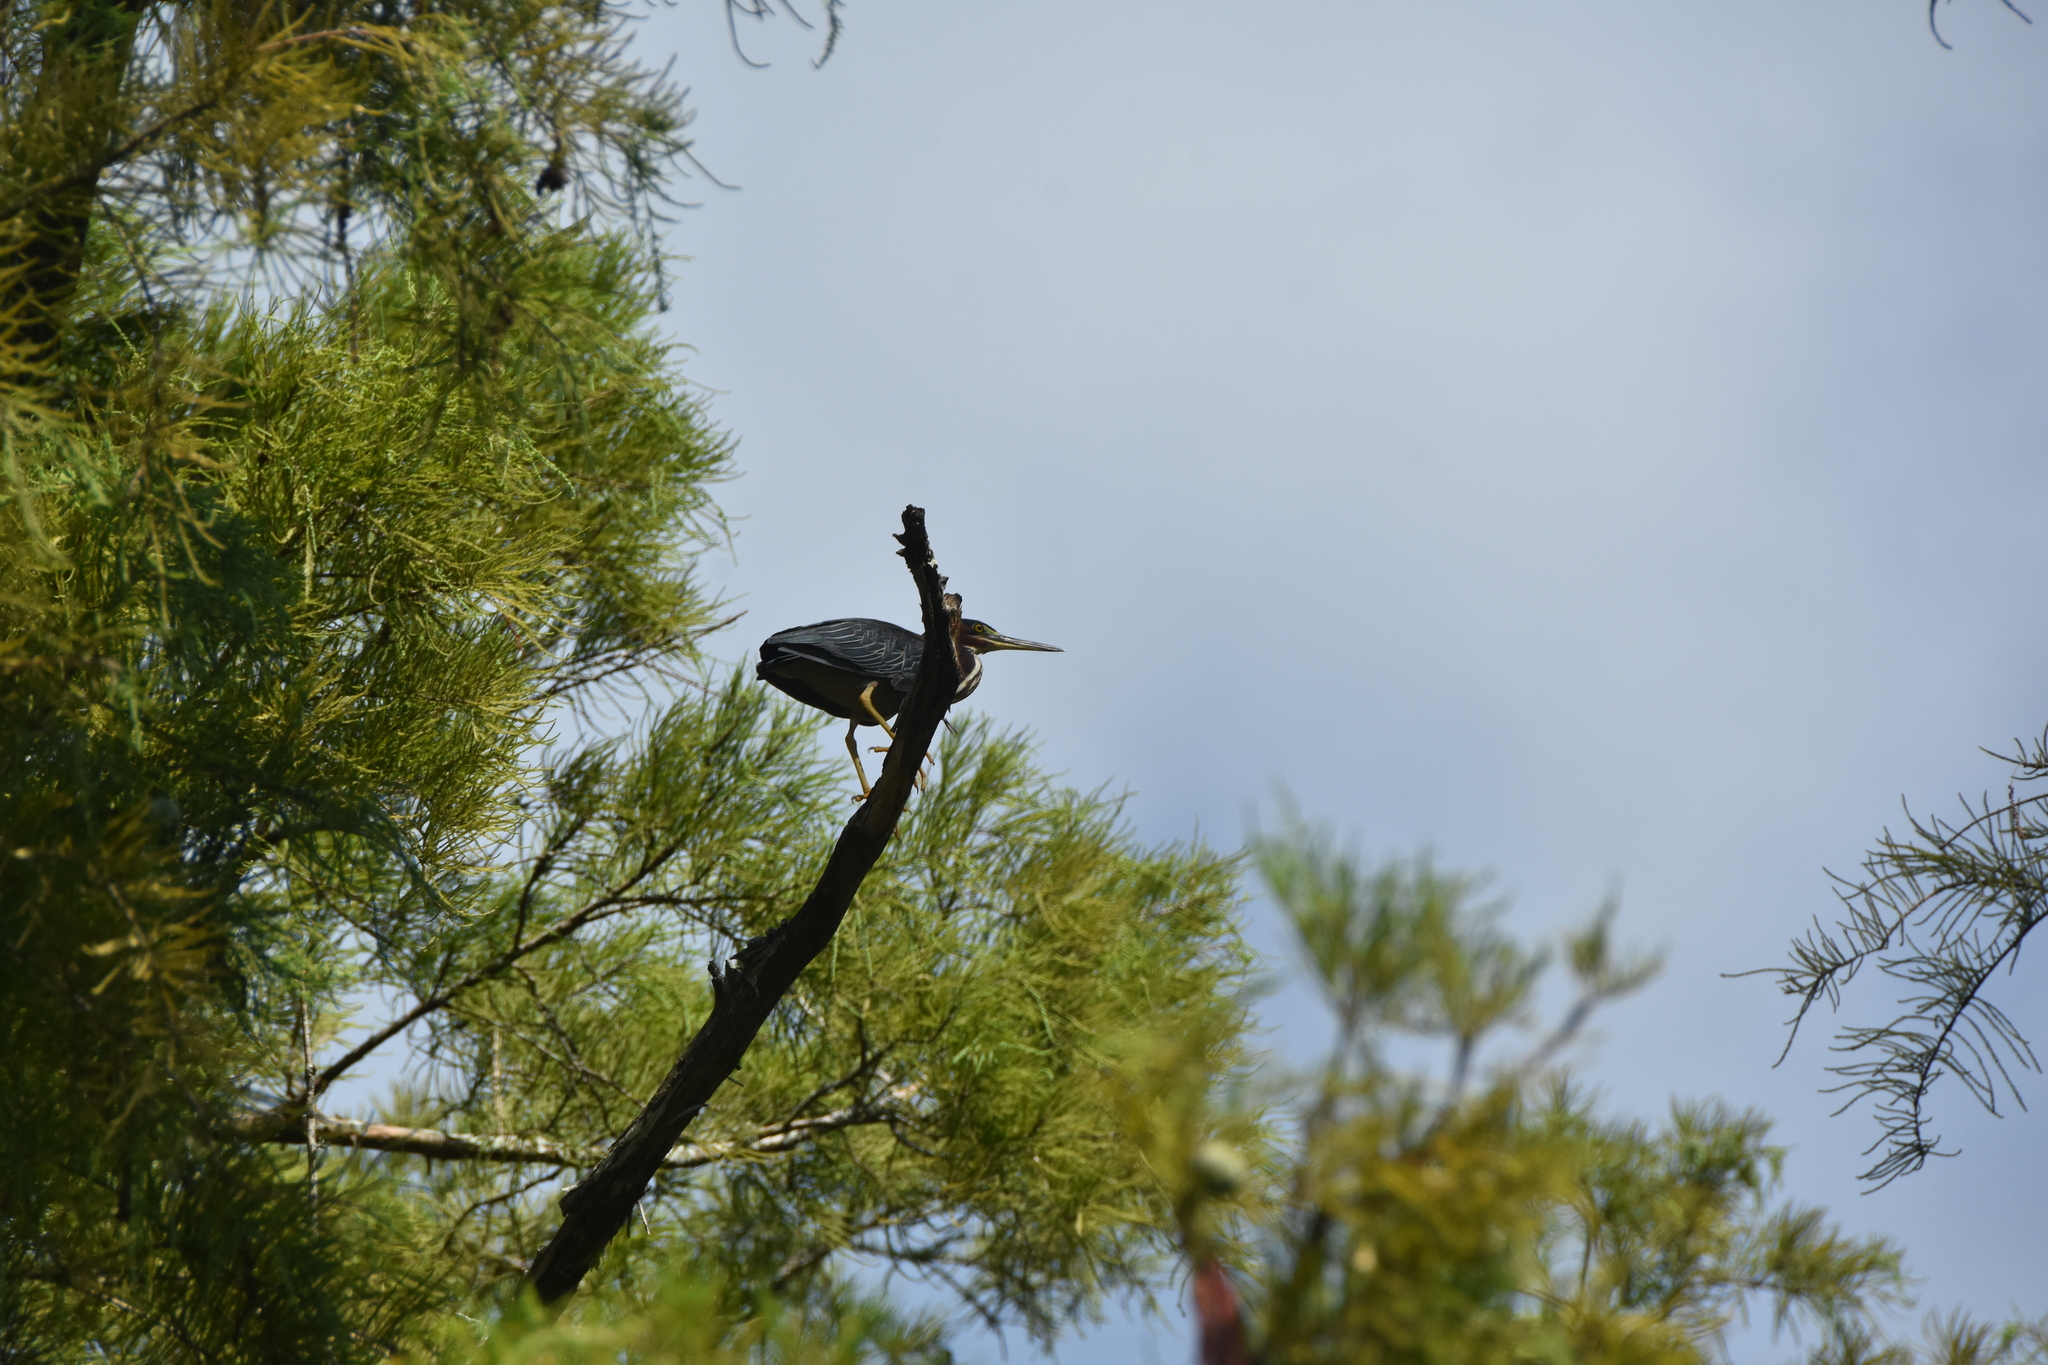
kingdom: Animalia
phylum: Chordata
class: Aves
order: Pelecaniformes
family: Ardeidae
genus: Butorides
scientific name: Butorides virescens
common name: Green heron
